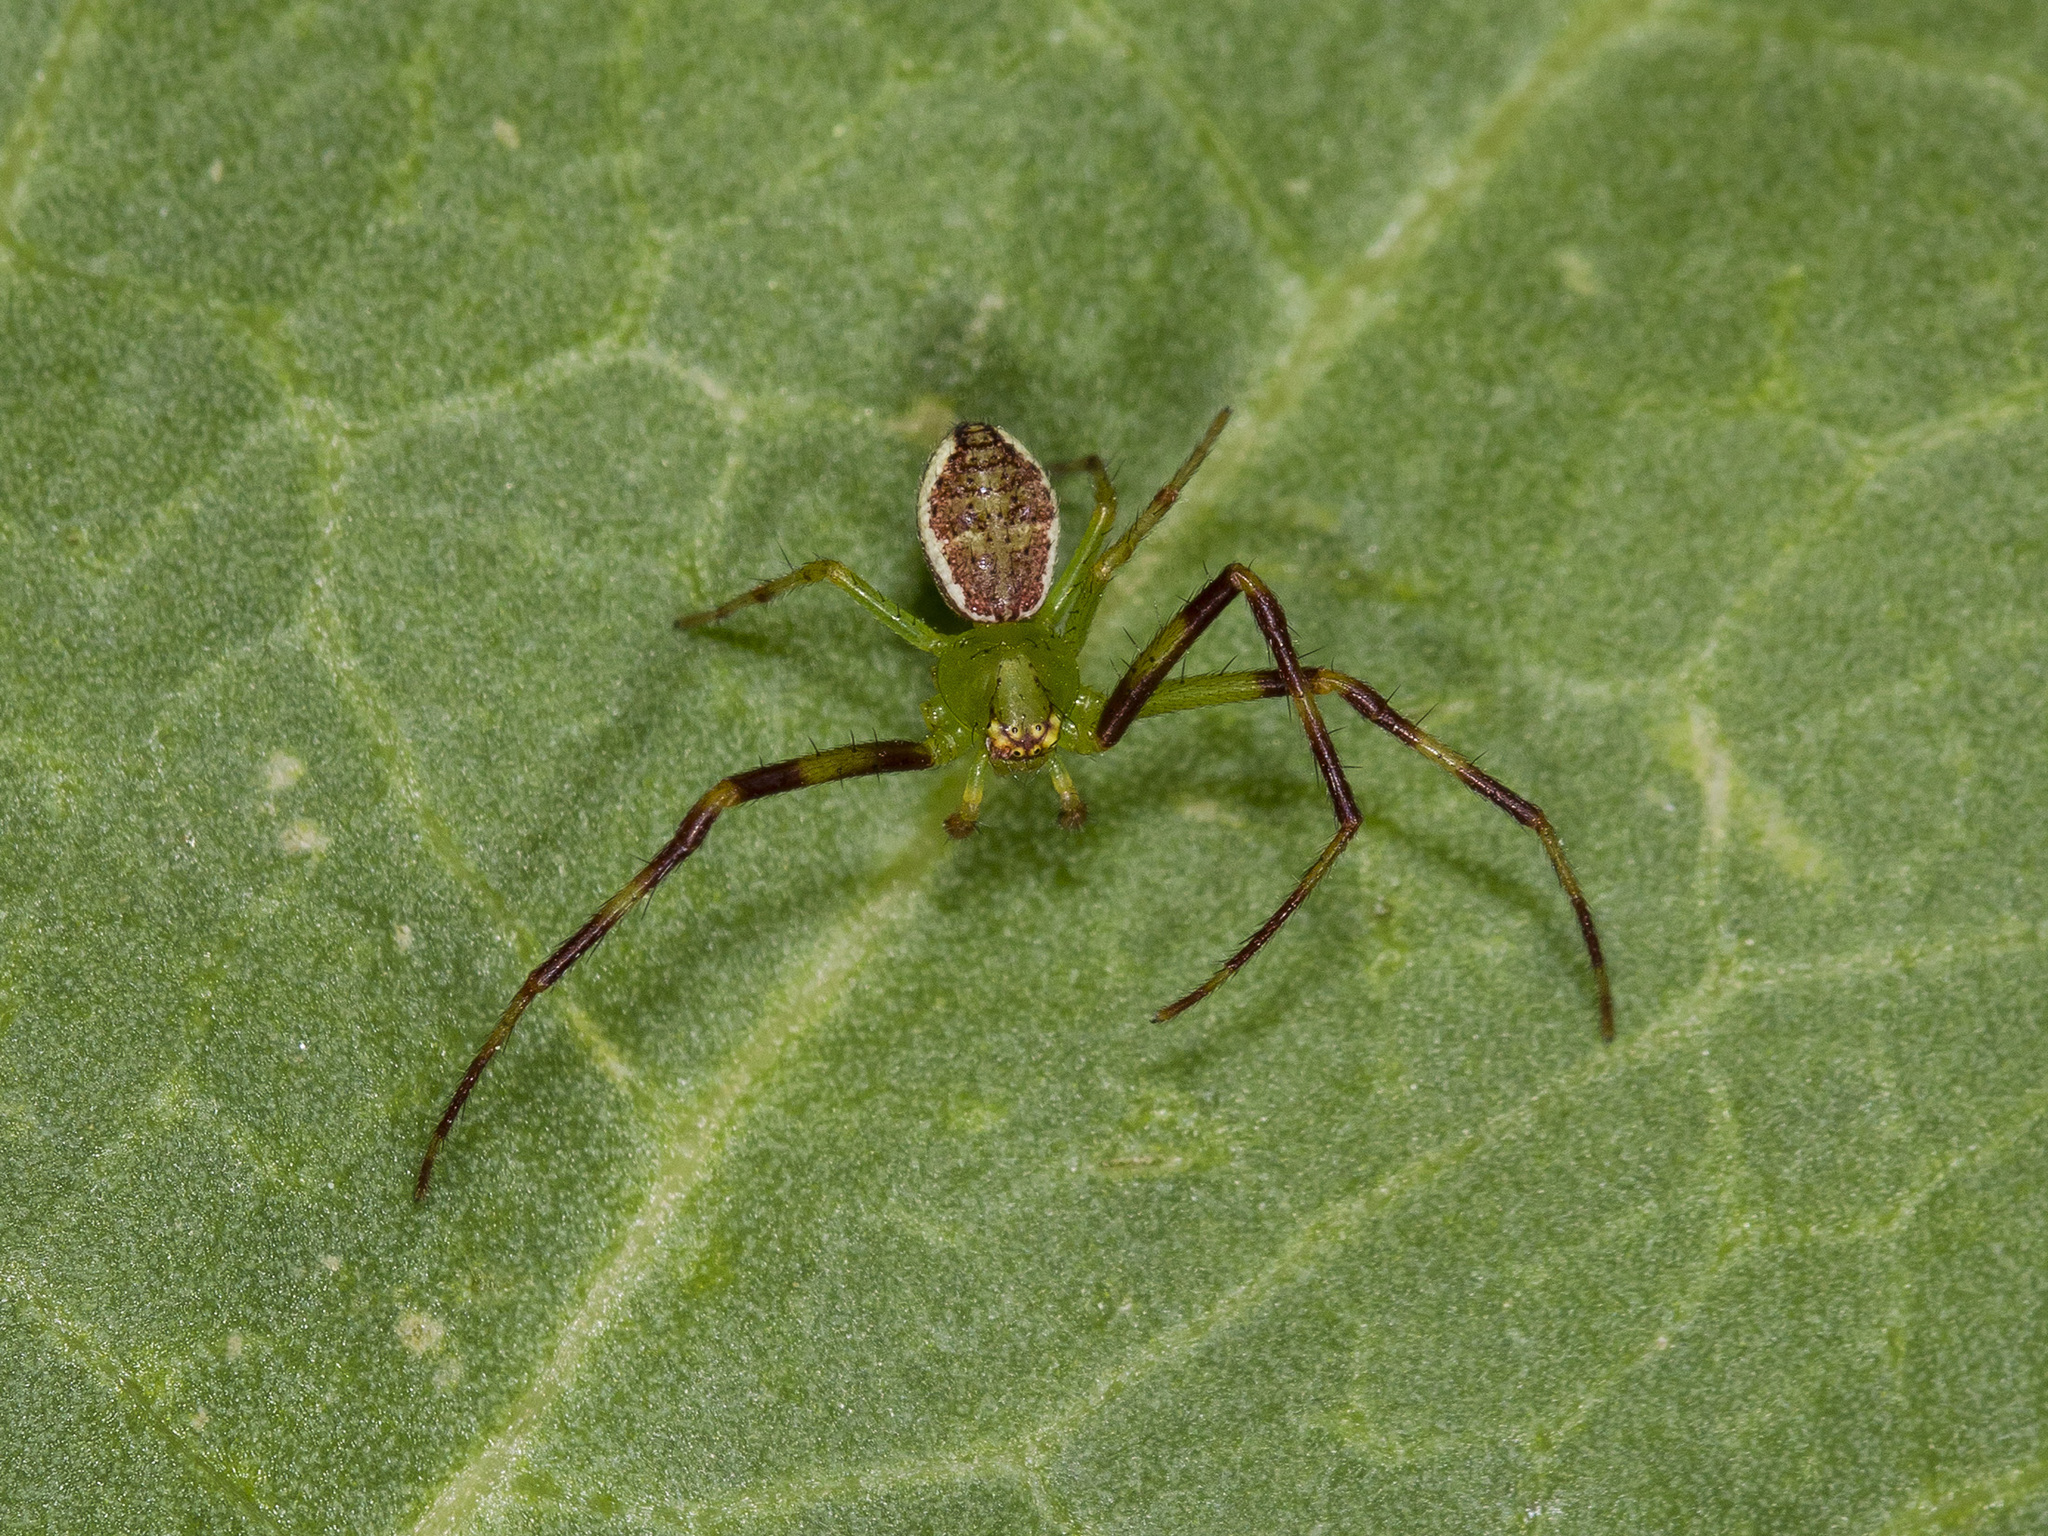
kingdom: Animalia
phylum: Arthropoda
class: Arachnida
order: Araneae
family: Thomisidae
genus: Diaea
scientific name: Diaea suspiciosa
